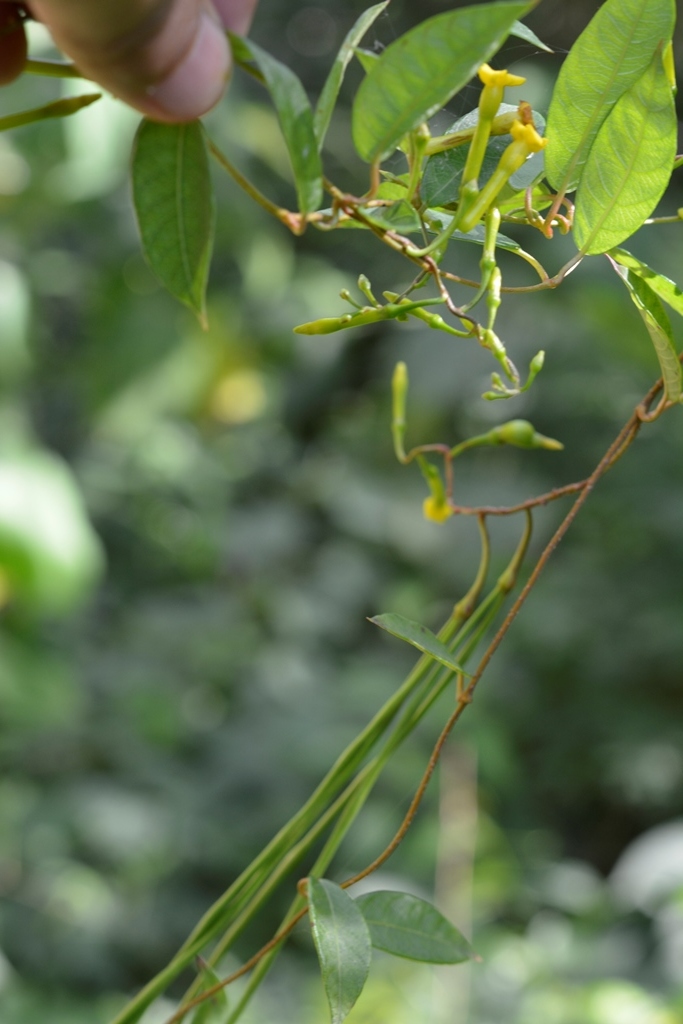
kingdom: Plantae
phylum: Tracheophyta
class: Magnoliopsida
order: Gentianales
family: Apocynaceae
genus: Mandevilla
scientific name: Mandevilla tubiflora
